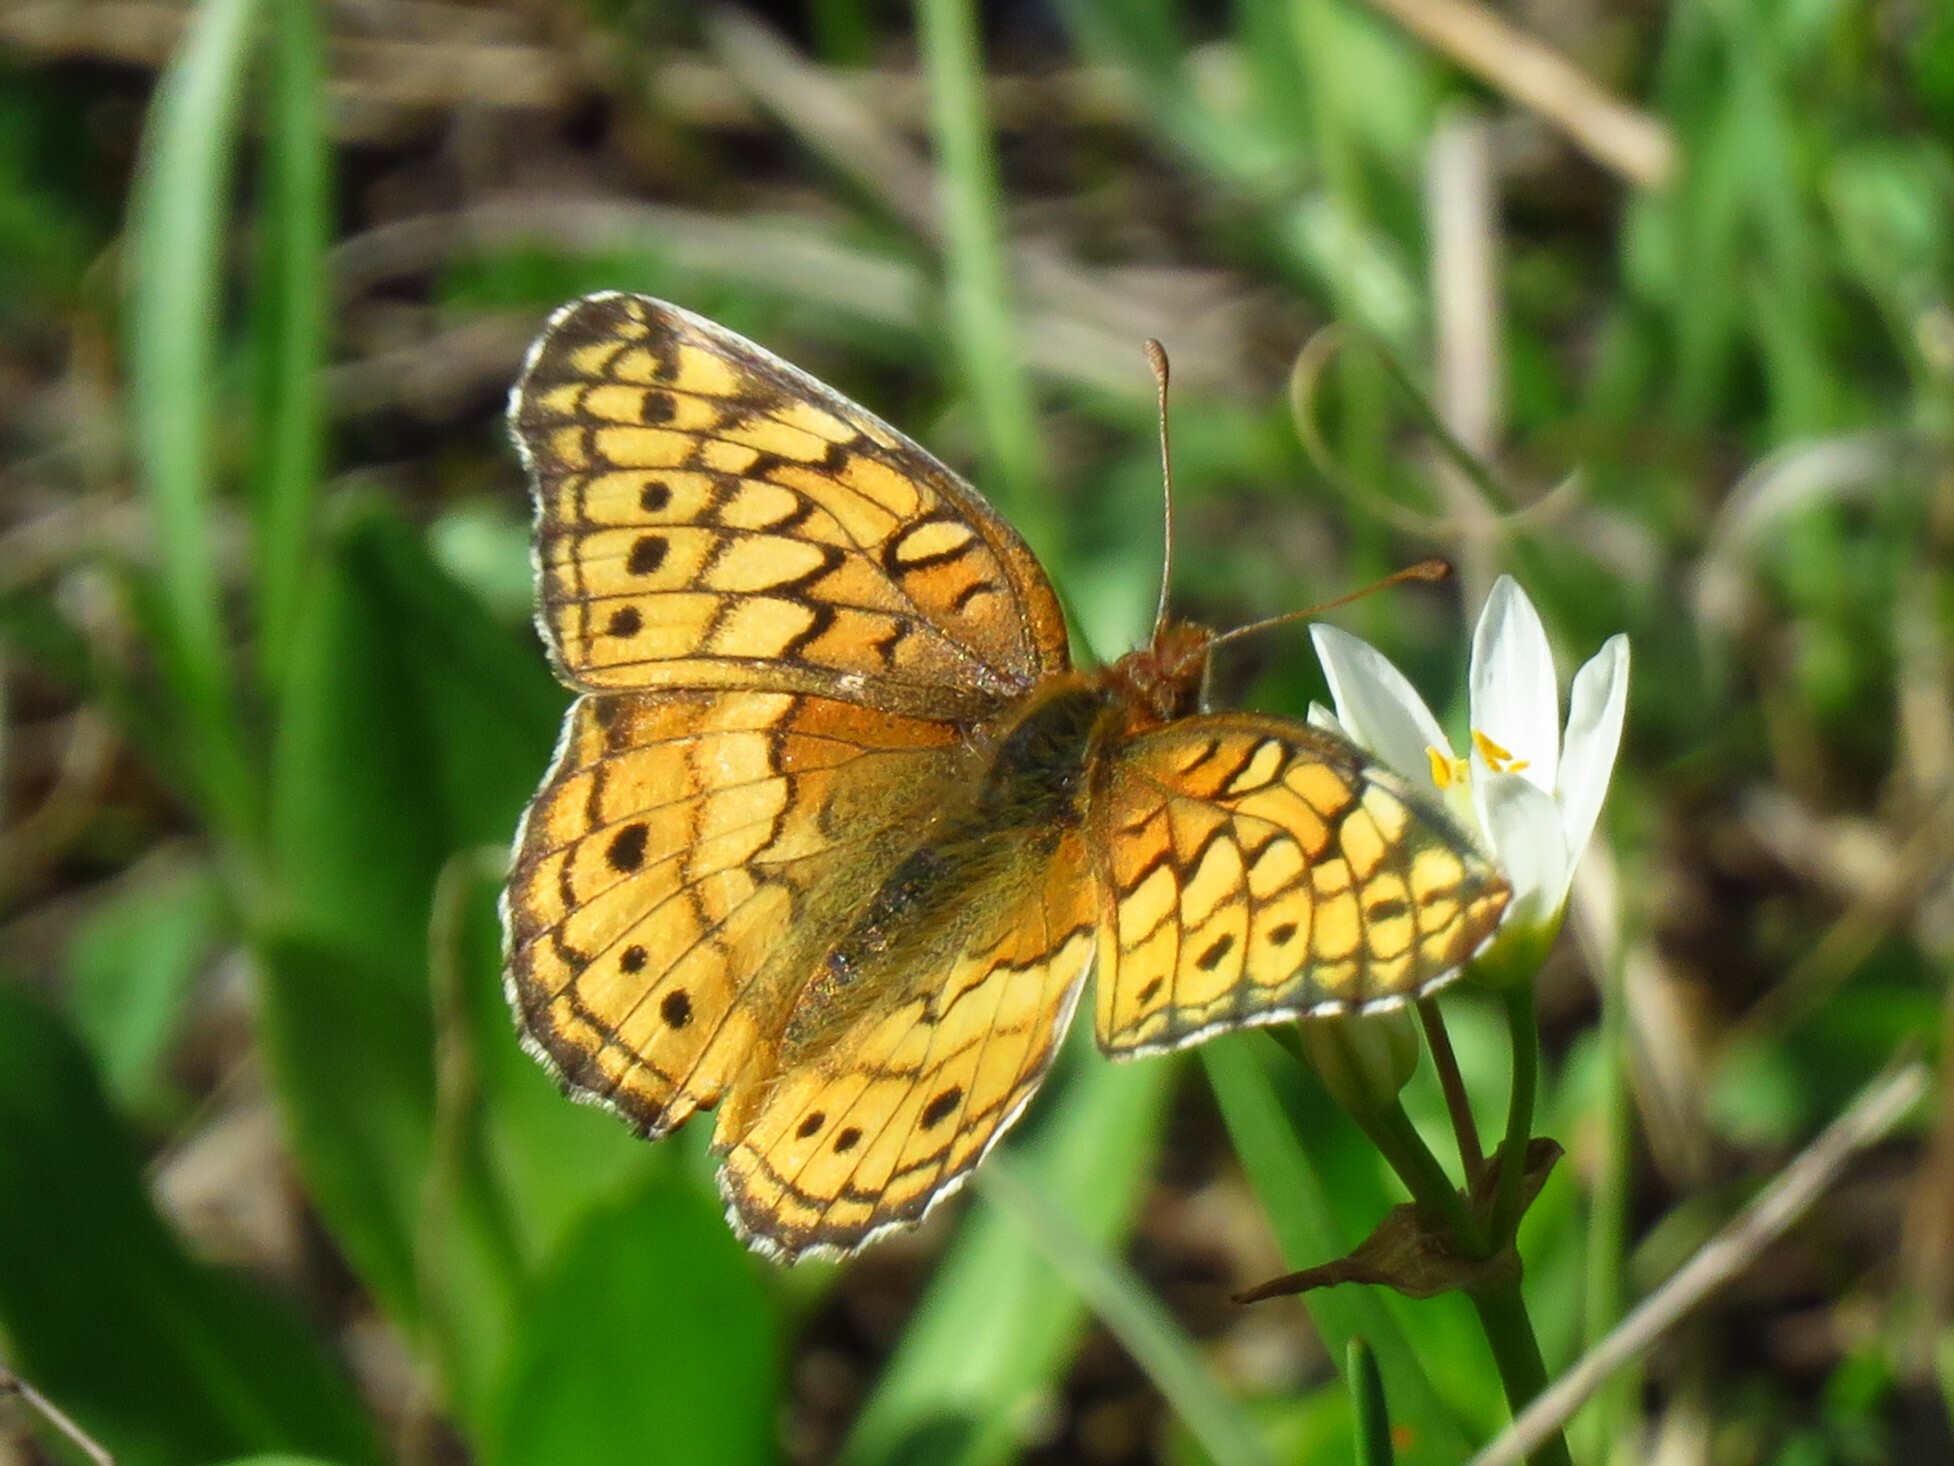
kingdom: Animalia
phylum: Arthropoda
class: Insecta
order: Lepidoptera
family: Nymphalidae
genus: Euptoieta
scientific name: Euptoieta claudia
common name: Variegated fritillary
